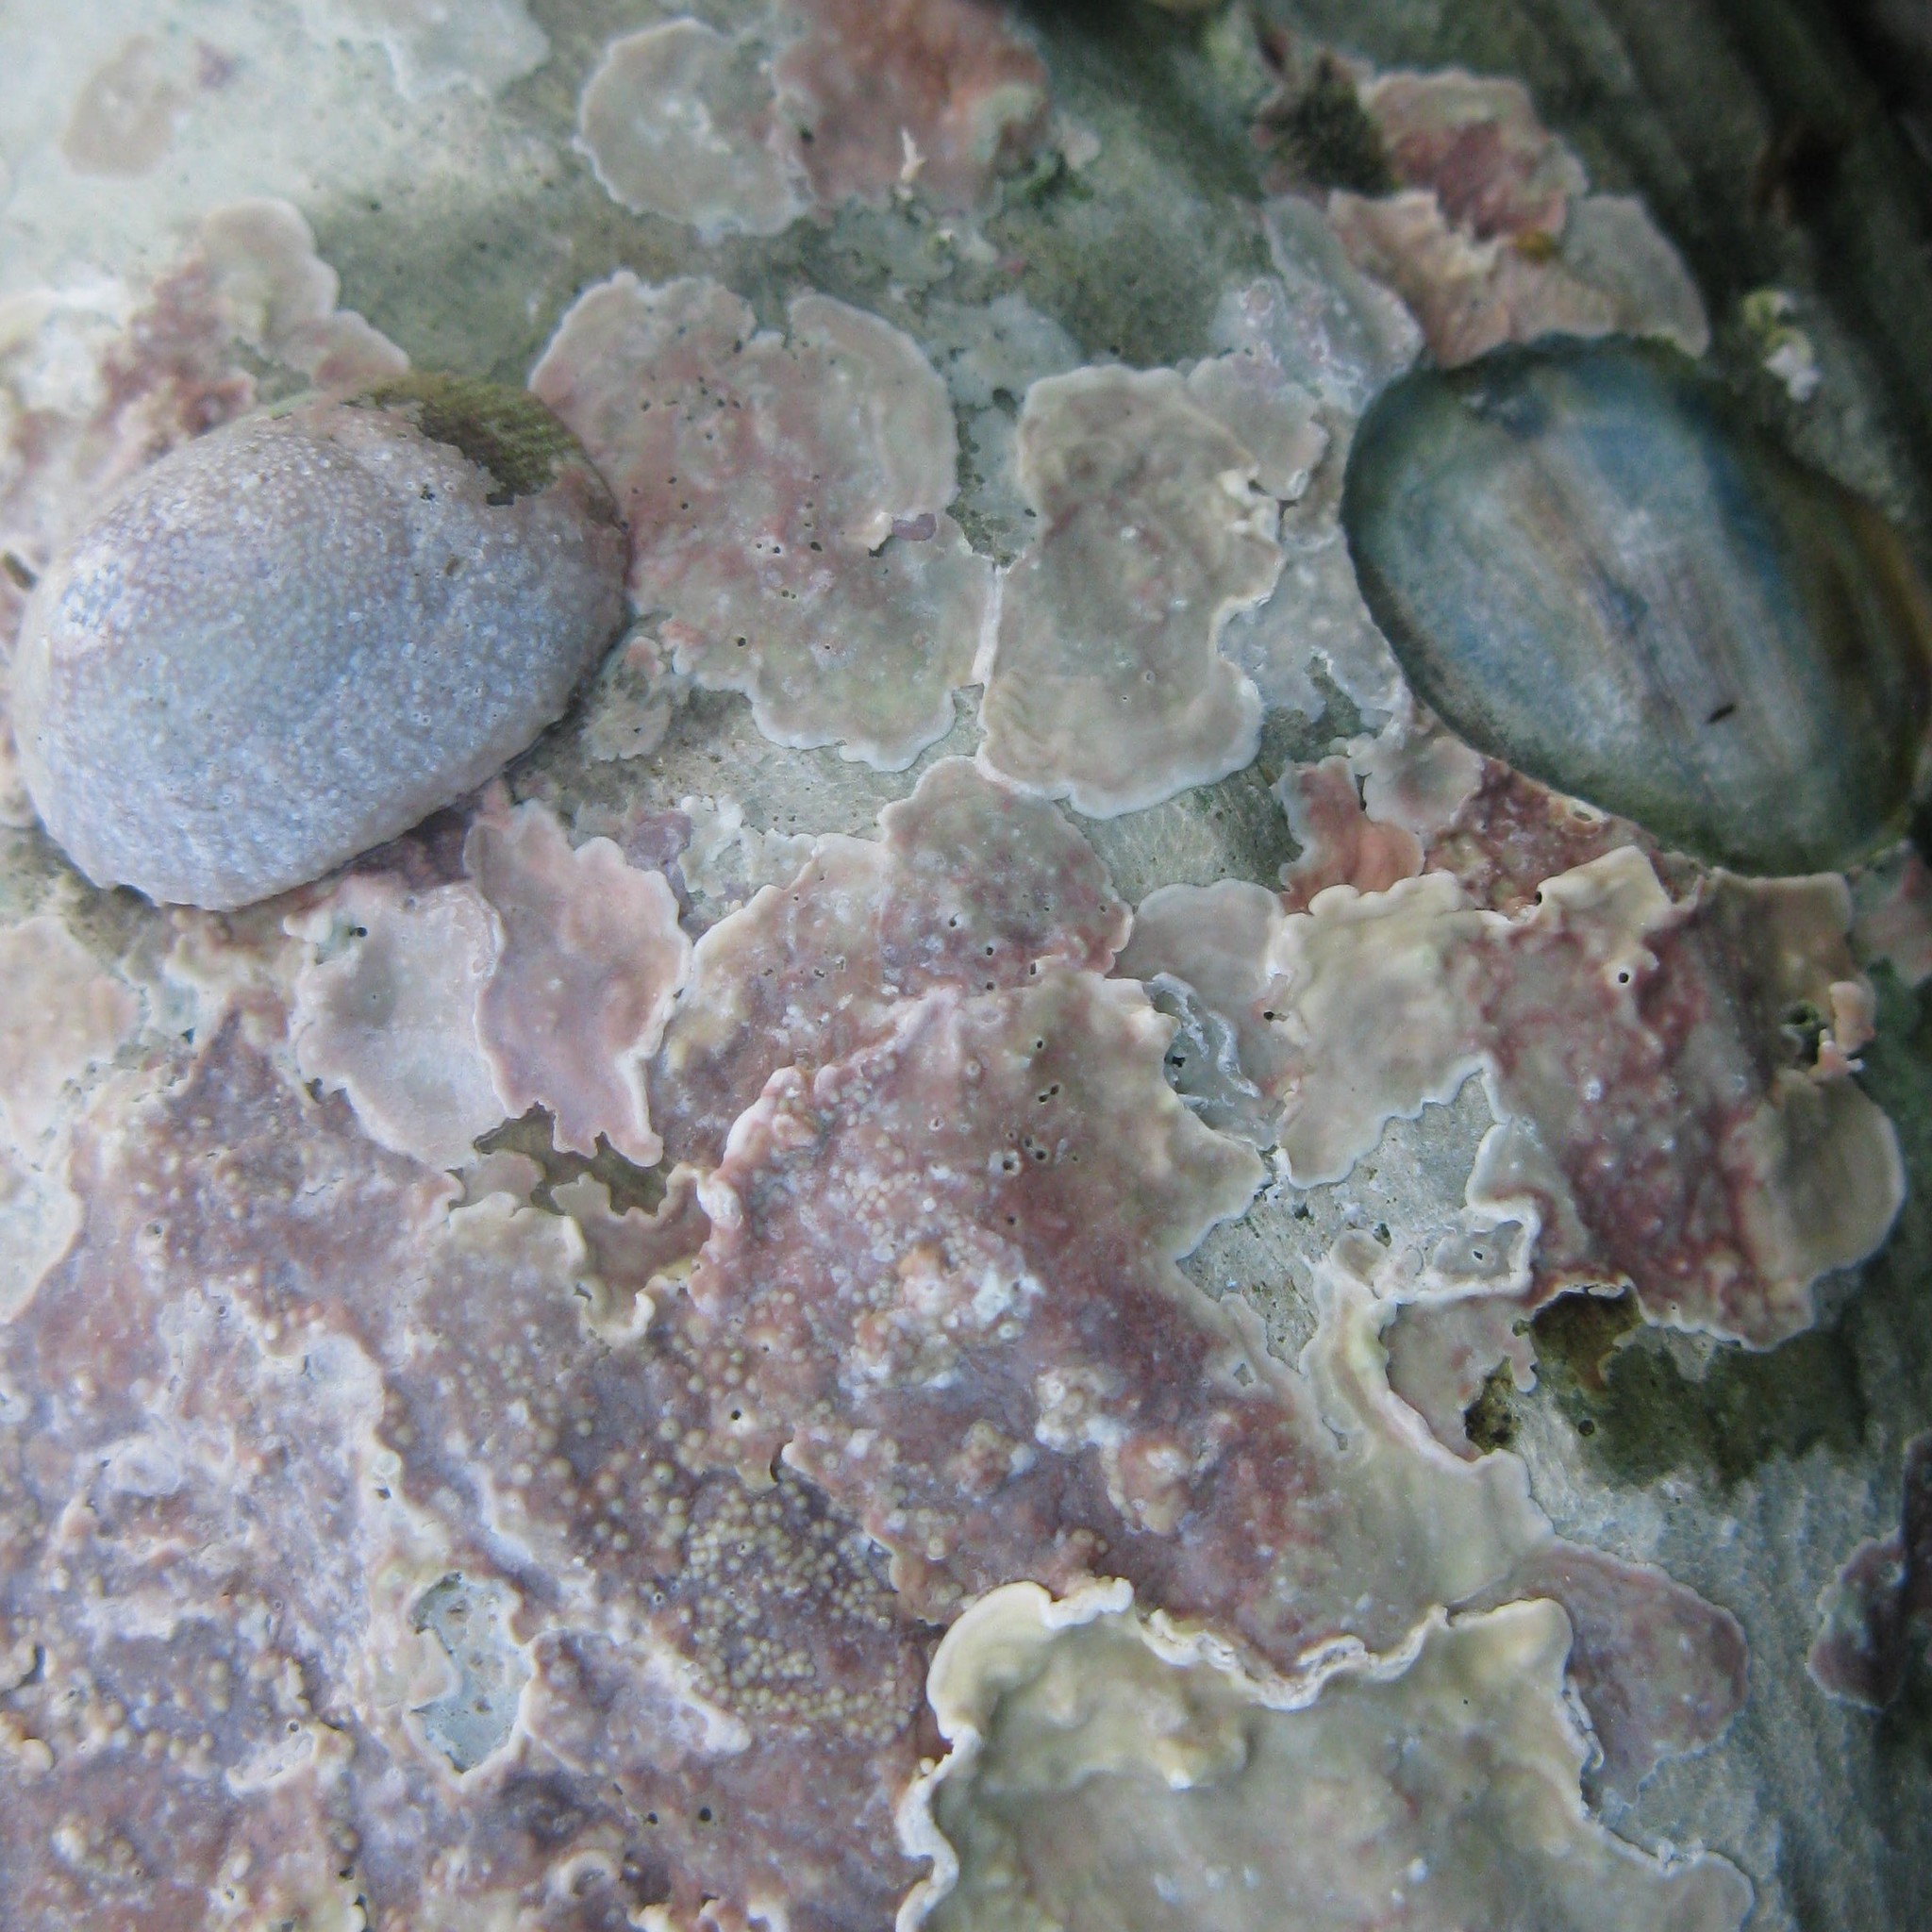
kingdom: Animalia
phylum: Mollusca
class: Gastropoda
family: Lottiidae
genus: Radiacmea
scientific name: Radiacmea inconspicua
